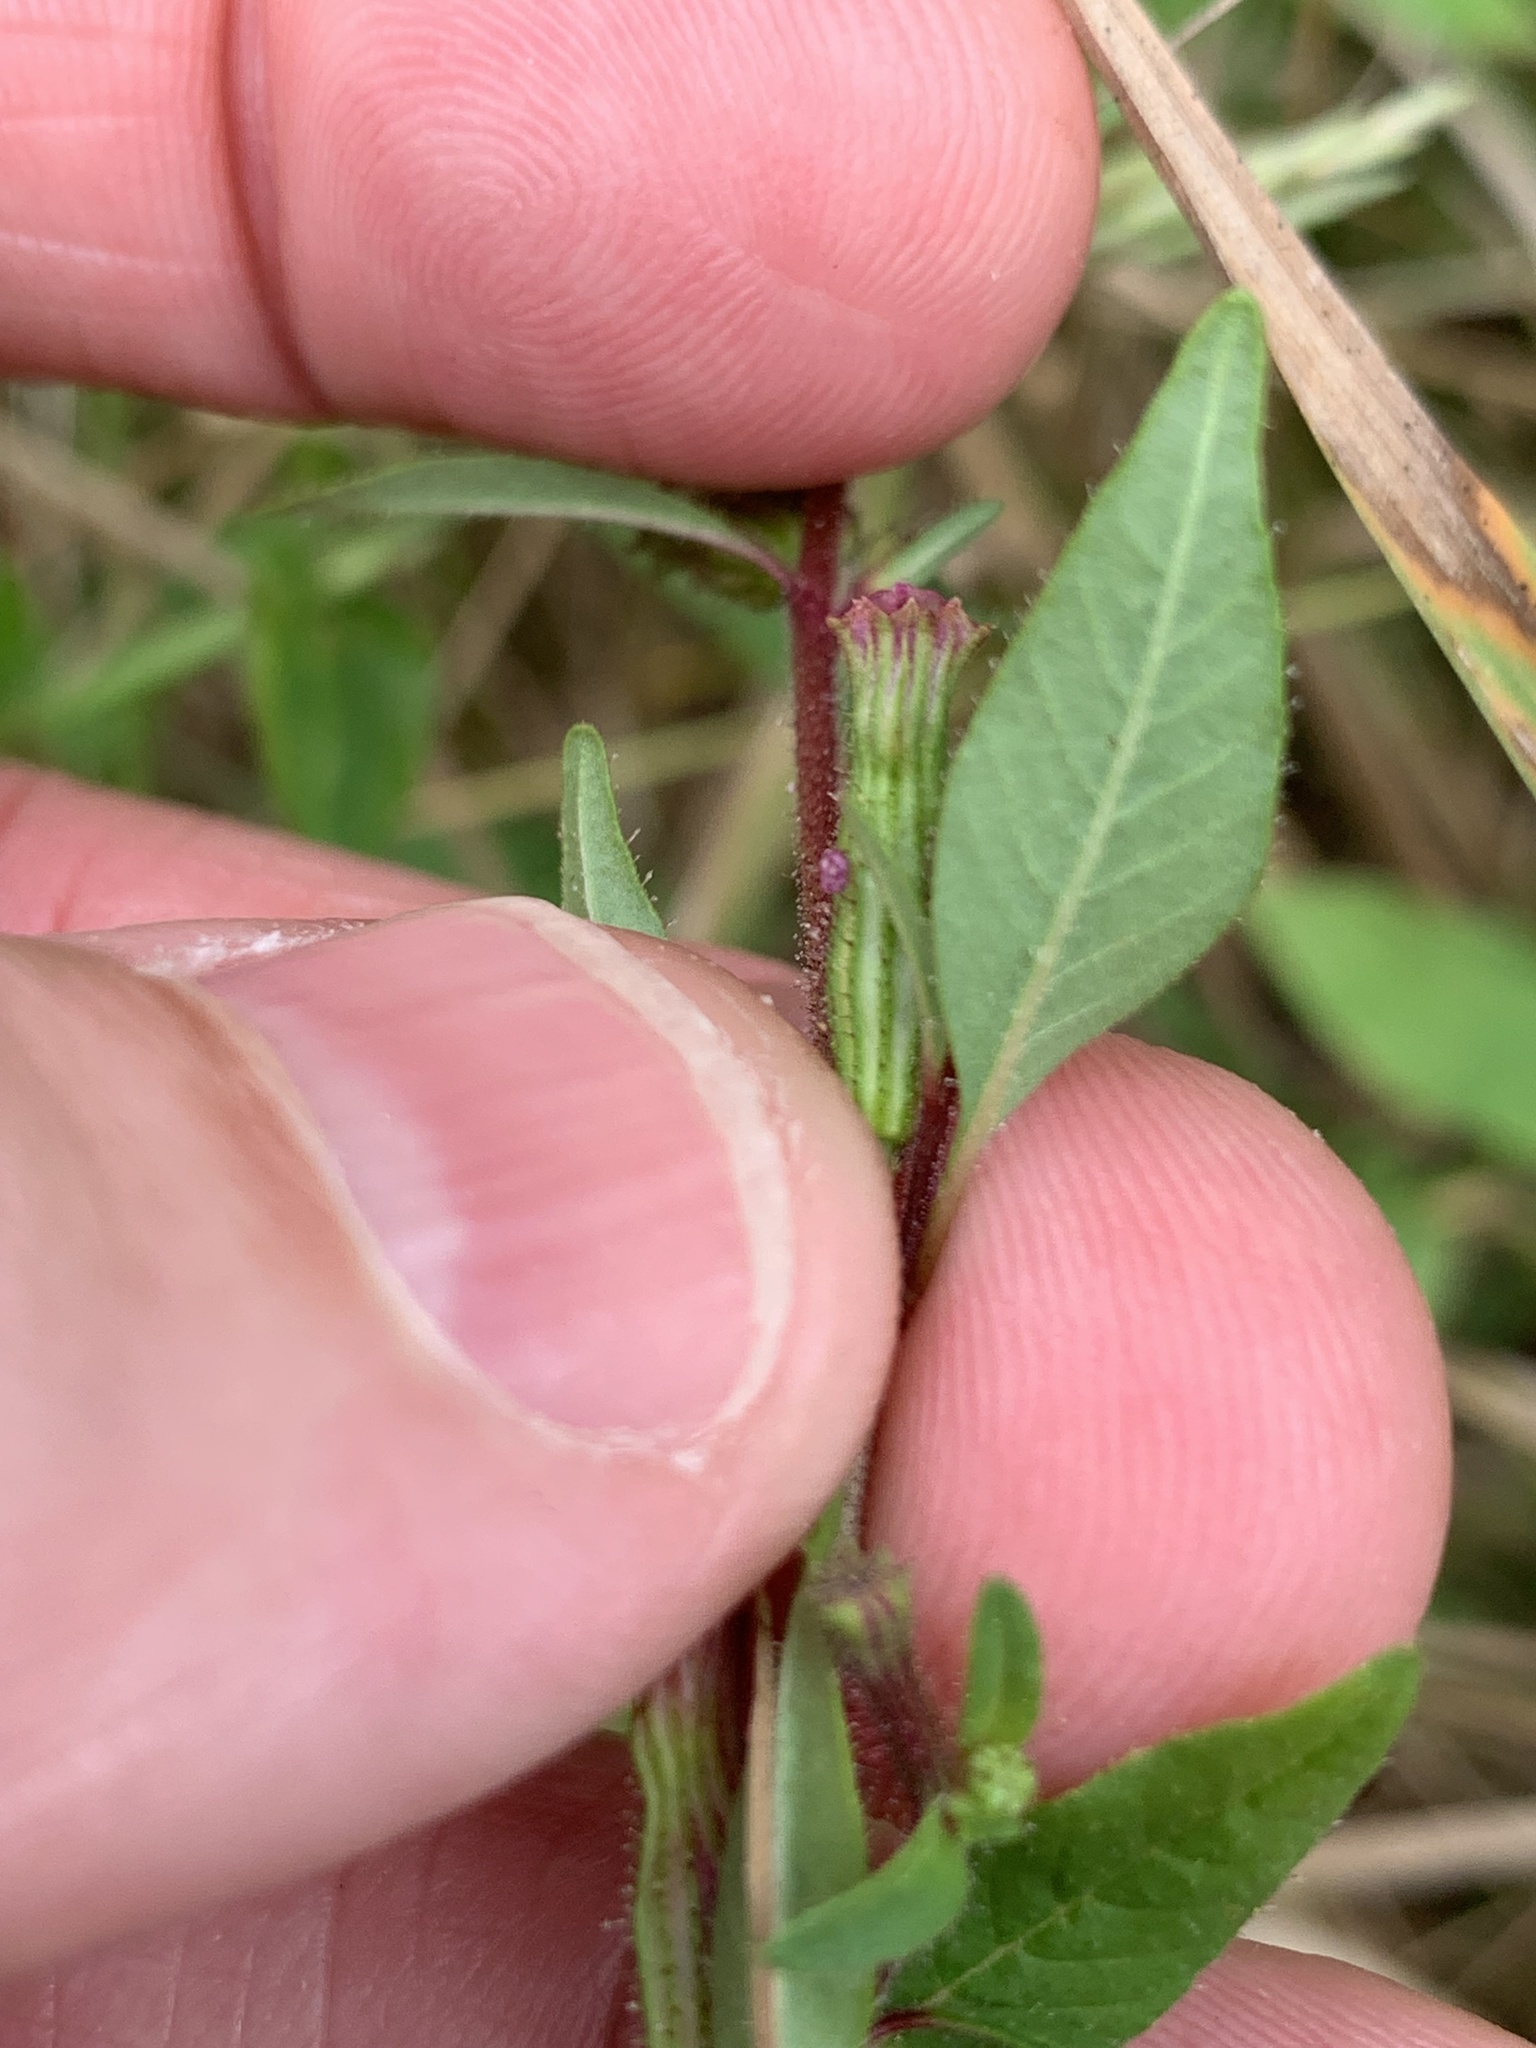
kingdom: Plantae
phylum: Tracheophyta
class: Magnoliopsida
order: Myrtales
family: Lythraceae
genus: Cuphea
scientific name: Cuphea viscosissima
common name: Clammy cuphea
